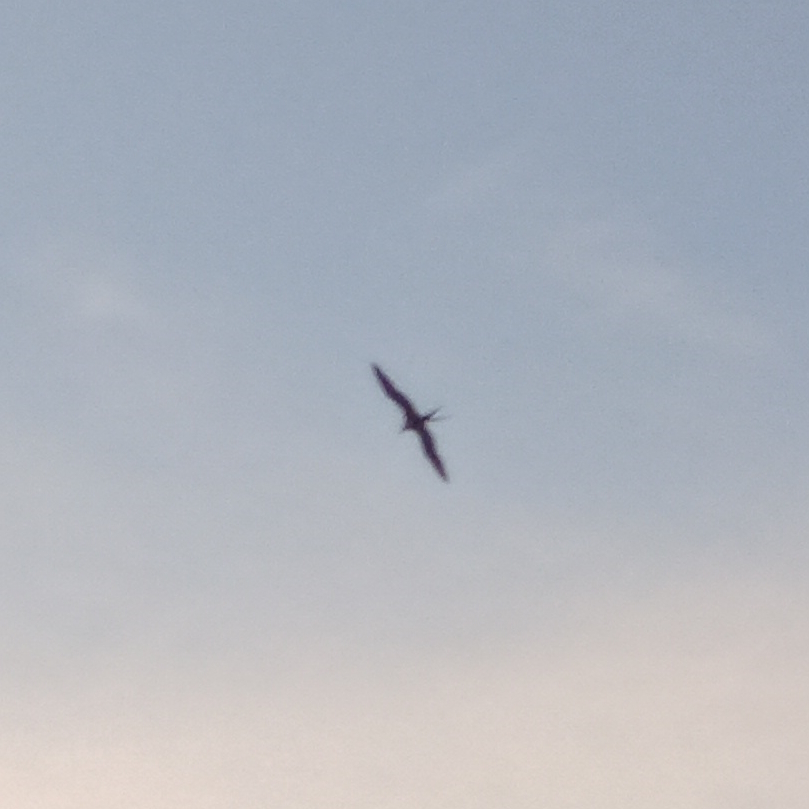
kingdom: Animalia
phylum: Chordata
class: Aves
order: Suliformes
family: Fregatidae
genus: Fregata
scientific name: Fregata magnificens
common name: Magnificent frigatebird
